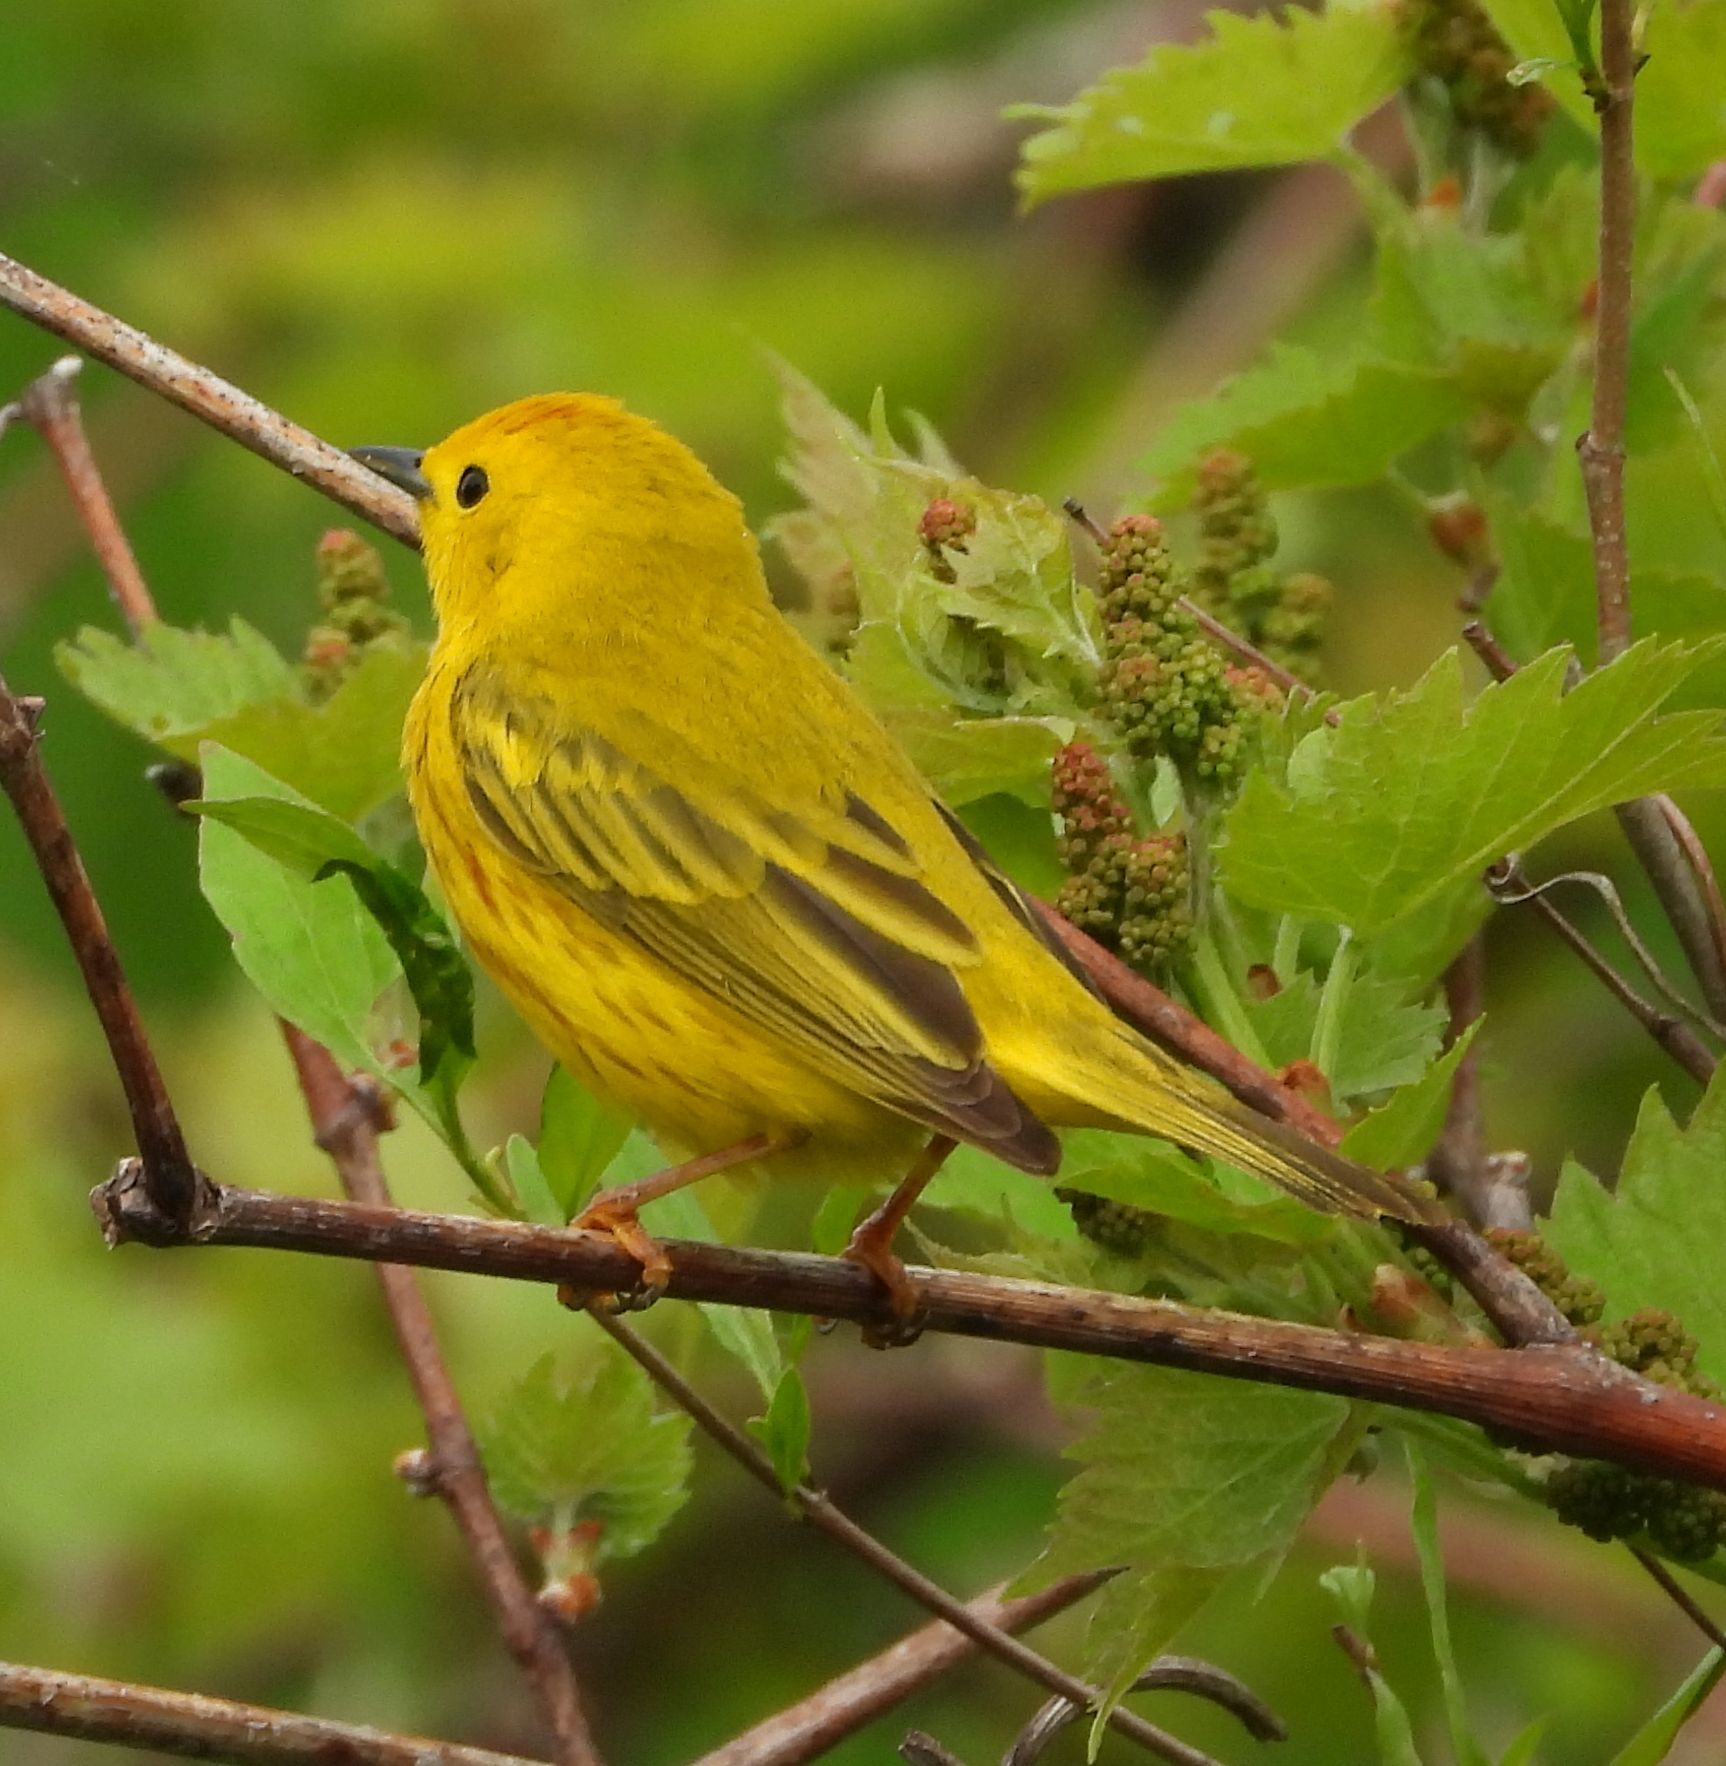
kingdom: Animalia
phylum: Chordata
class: Aves
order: Passeriformes
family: Parulidae
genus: Setophaga
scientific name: Setophaga petechia
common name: Yellow warbler
